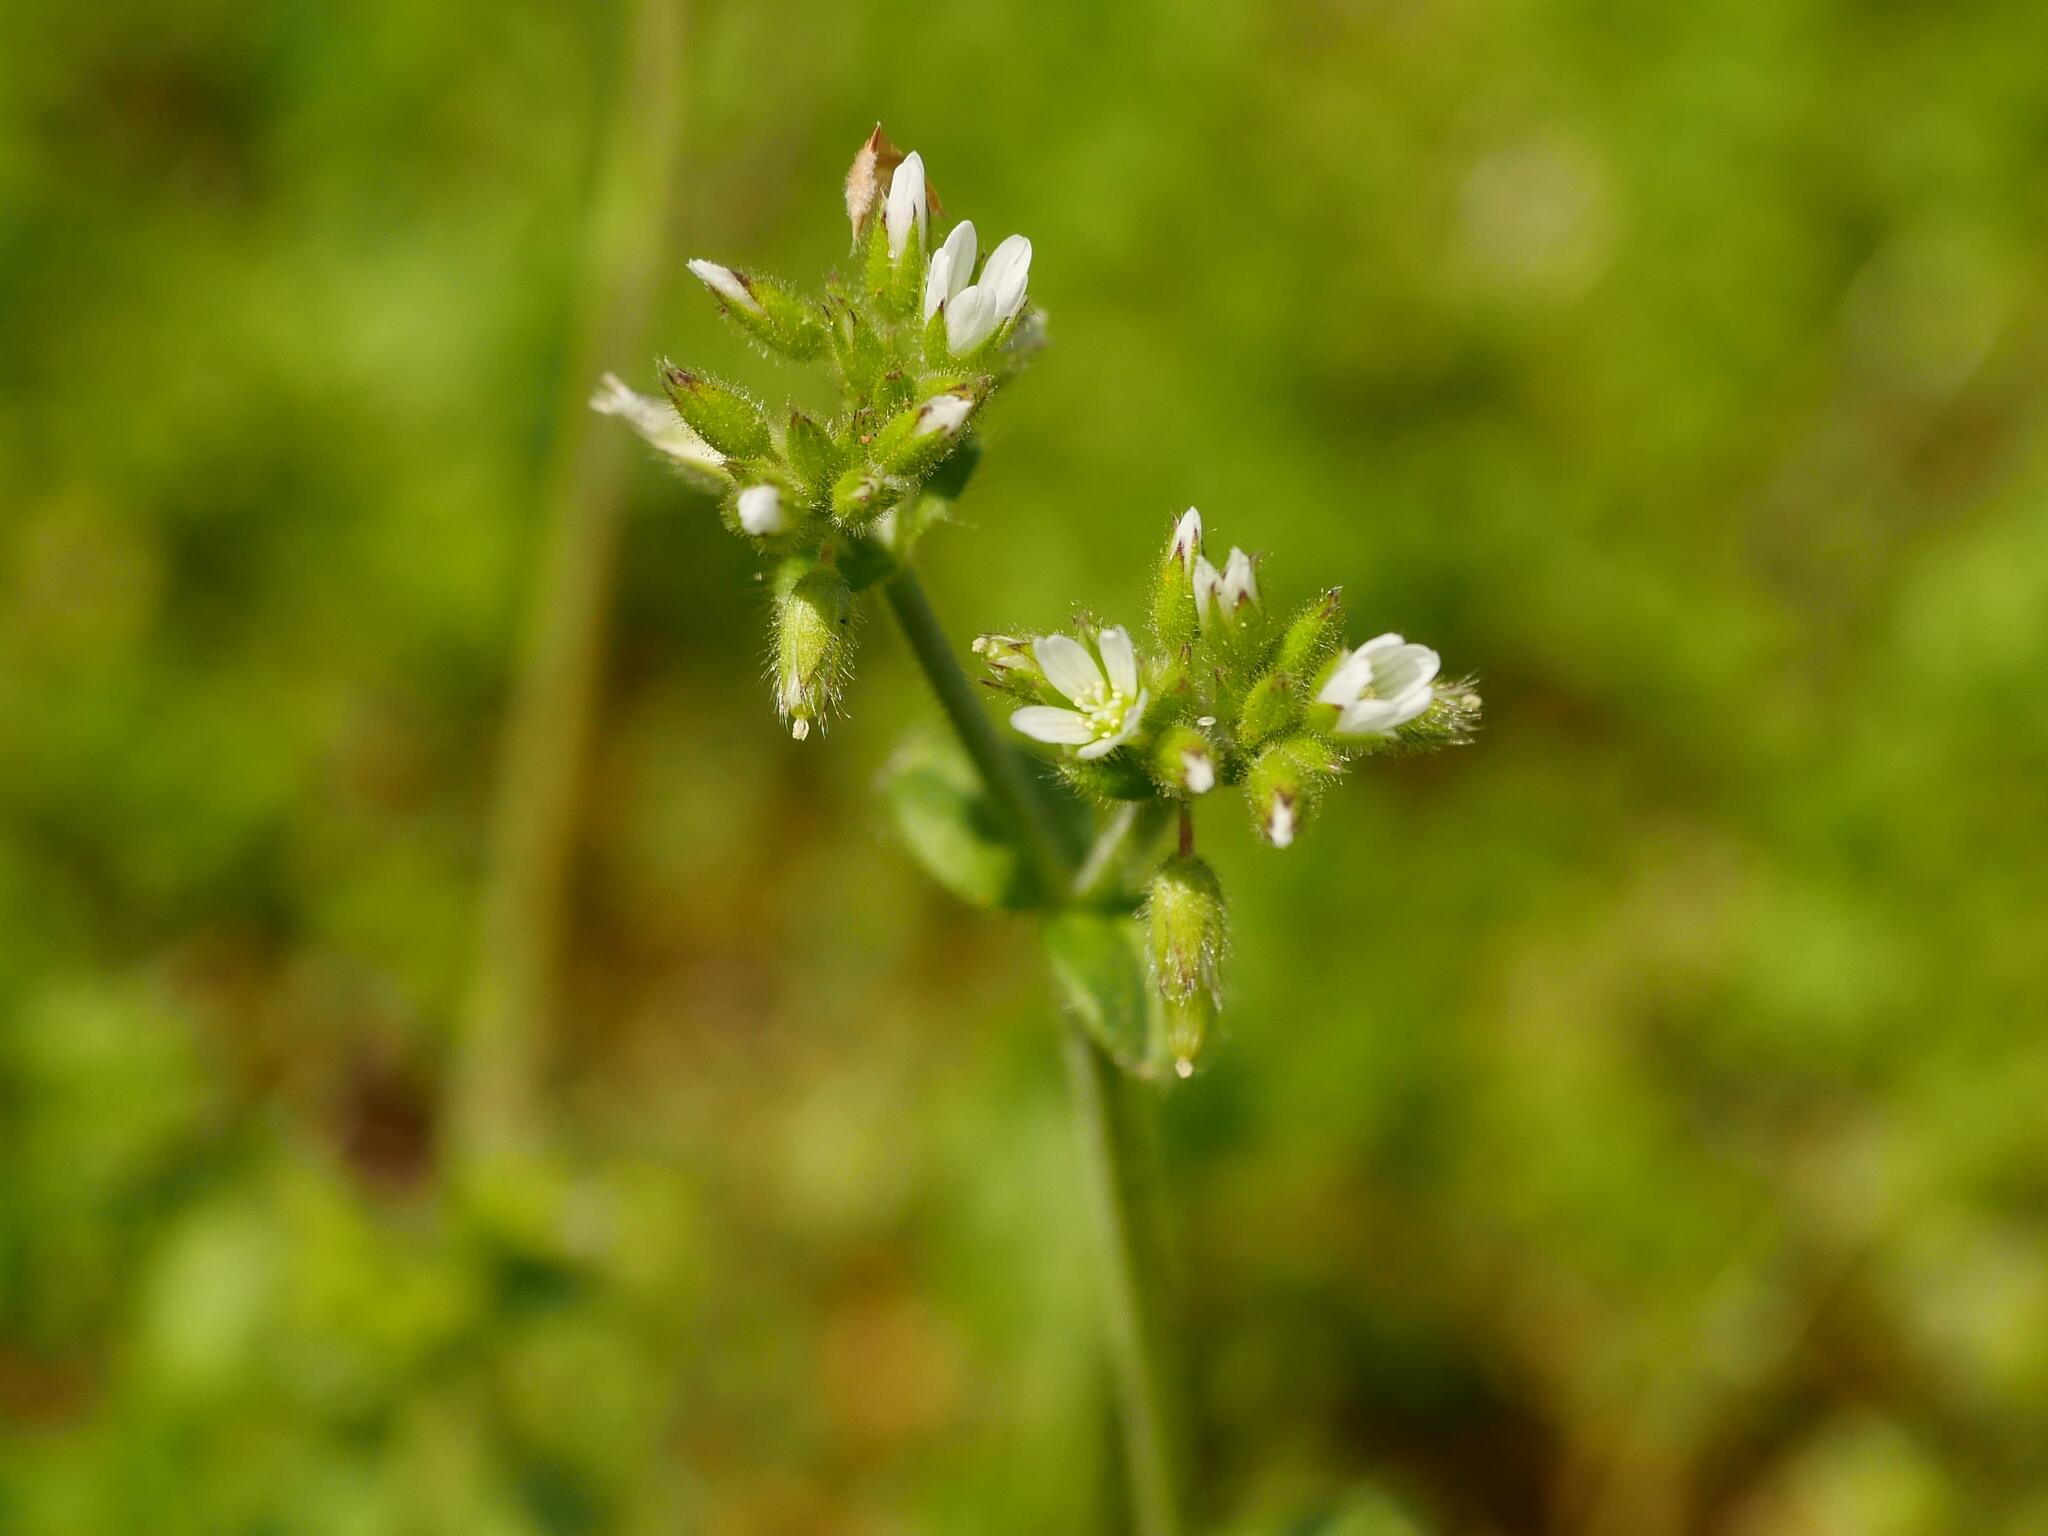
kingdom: Plantae
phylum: Tracheophyta
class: Magnoliopsida
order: Caryophyllales
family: Caryophyllaceae
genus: Cerastium
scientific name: Cerastium glomeratum
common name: Sticky chickweed
